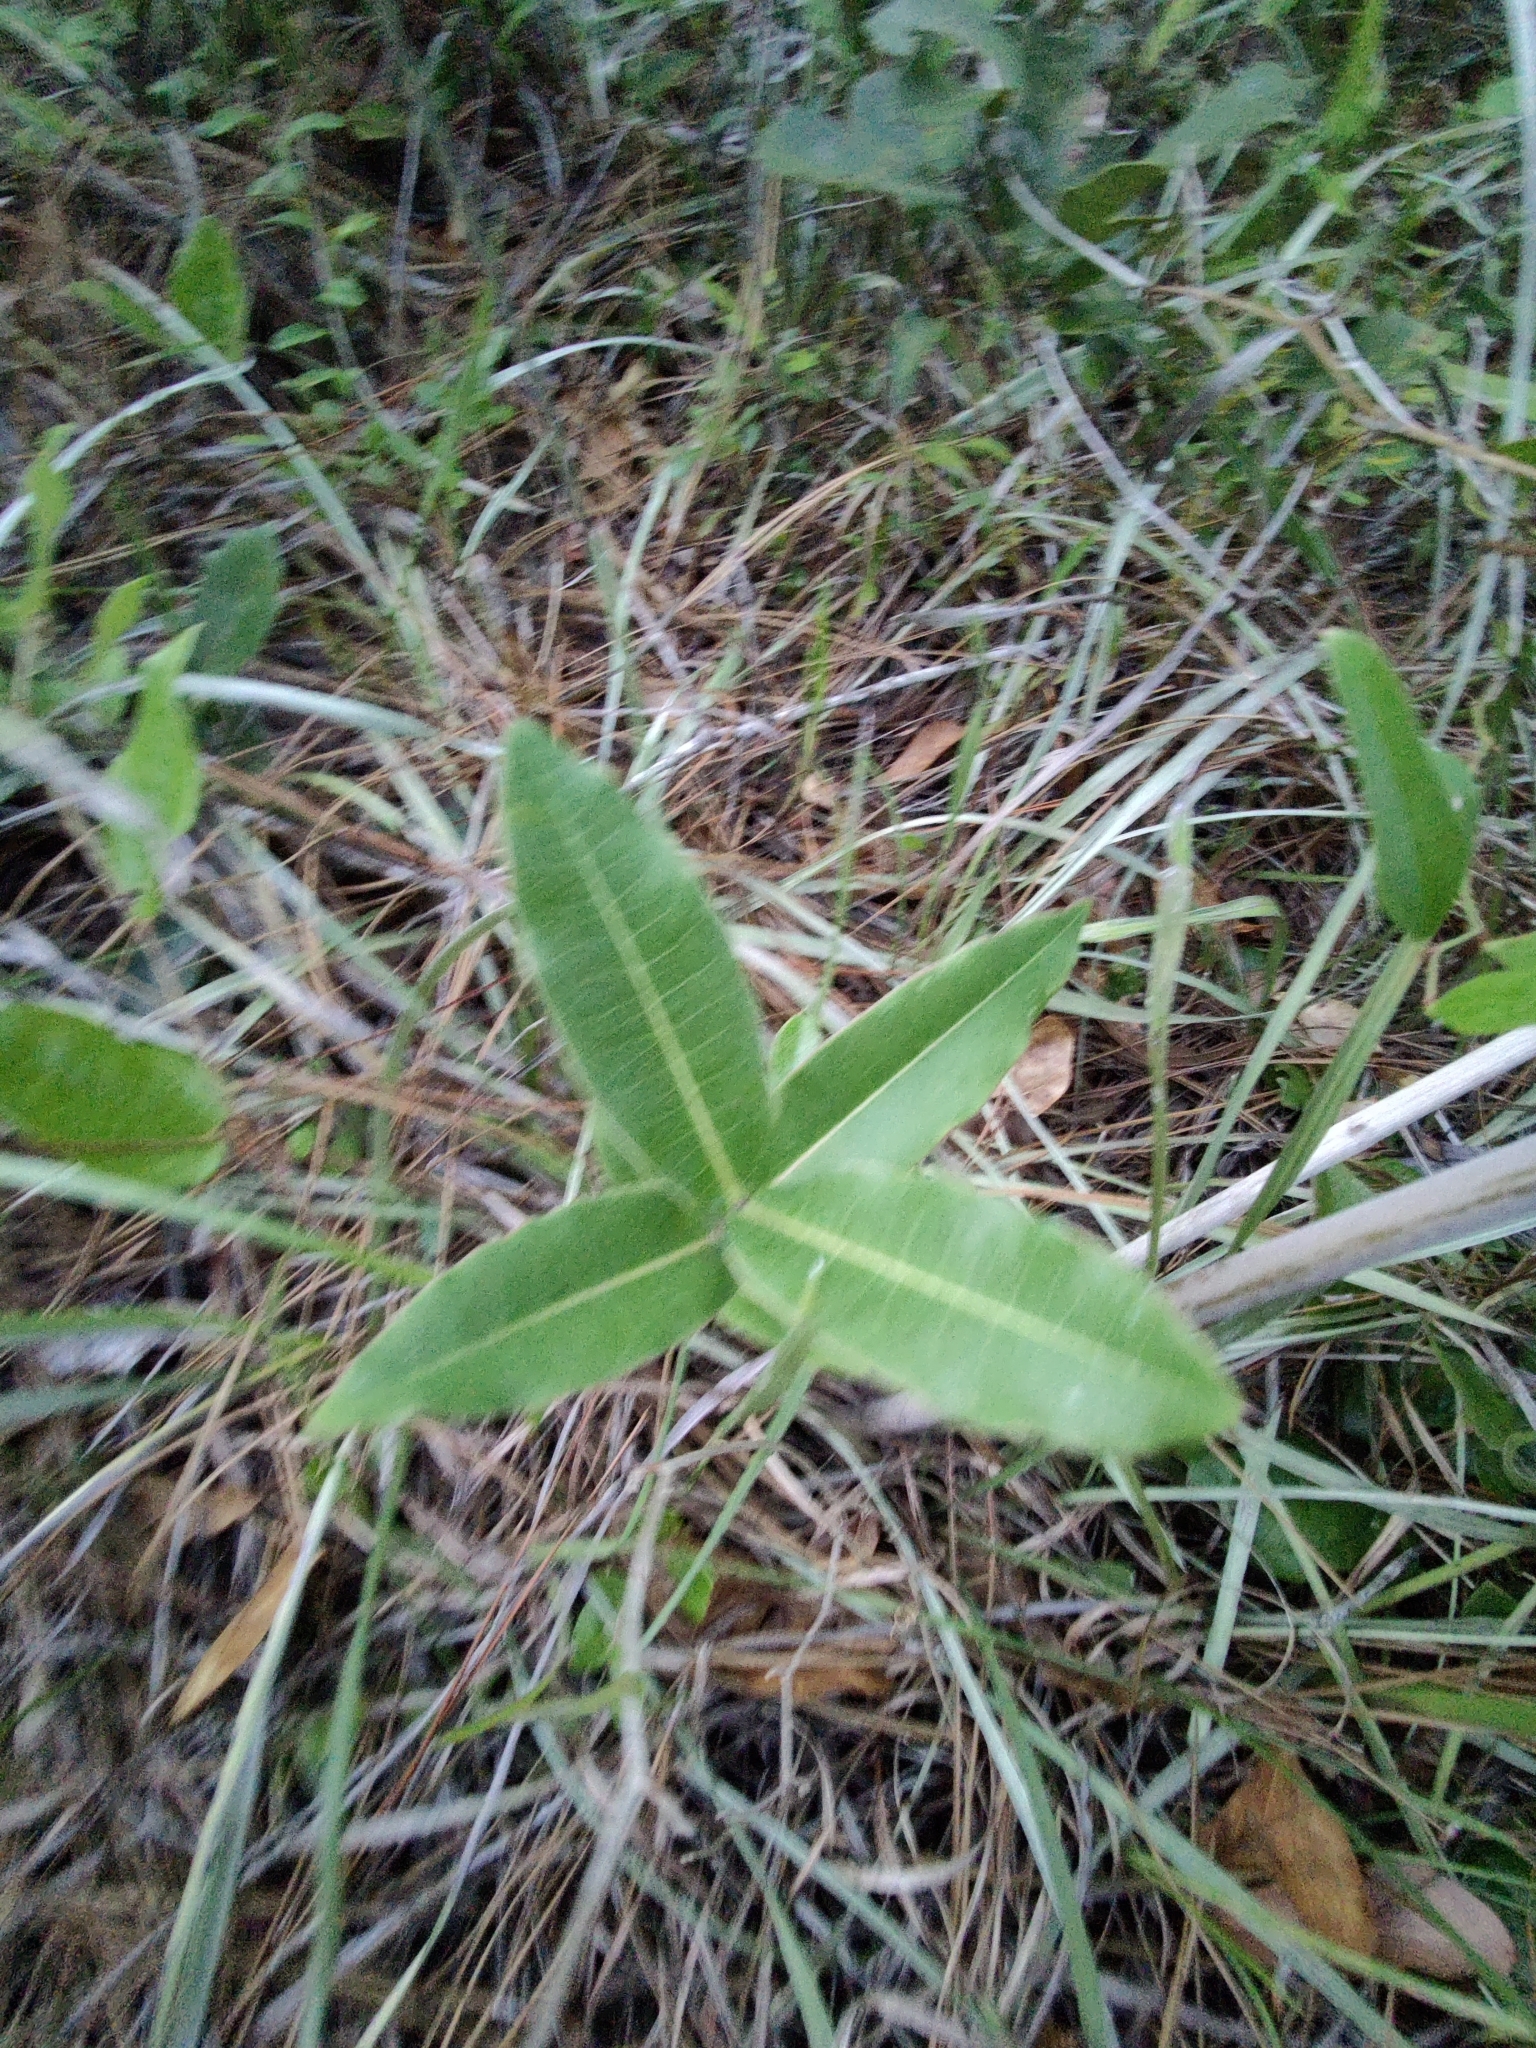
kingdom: Plantae
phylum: Tracheophyta
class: Magnoliopsida
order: Gentianales
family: Apocynaceae
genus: Asclepias
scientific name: Asclepias amplexicaulis
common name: Blunt-leaf milkweed
